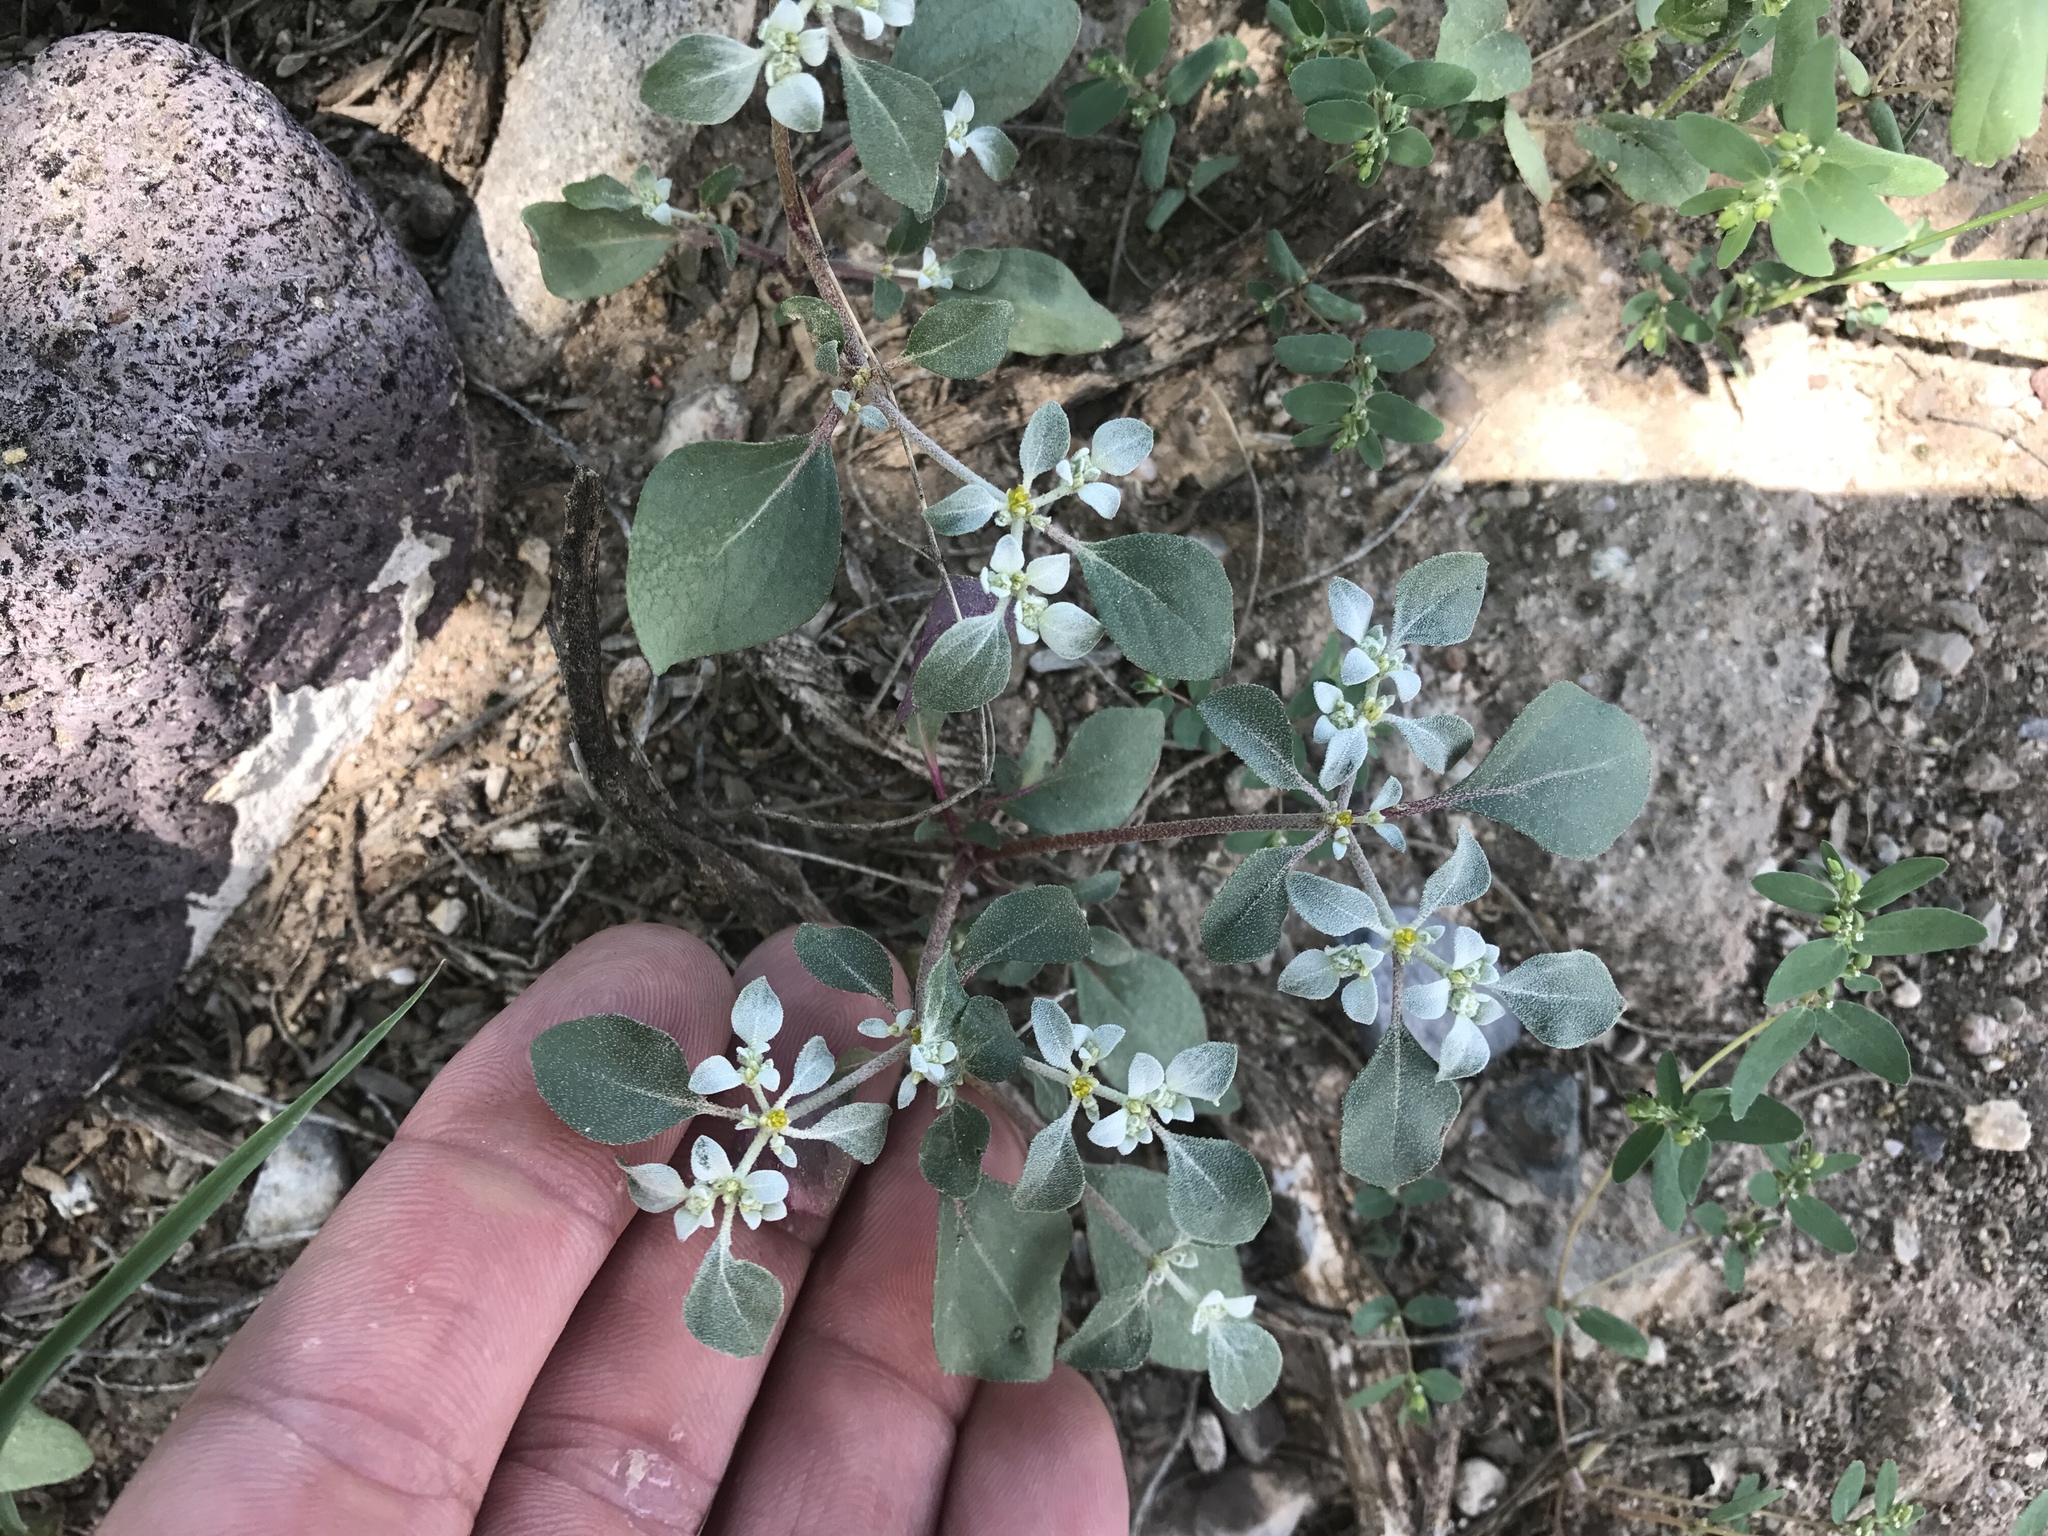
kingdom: Plantae
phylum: Tracheophyta
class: Magnoliopsida
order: Caryophyllales
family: Amaranthaceae
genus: Tidestromia
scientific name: Tidestromia lanuginosa
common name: Woolly tidestromia
